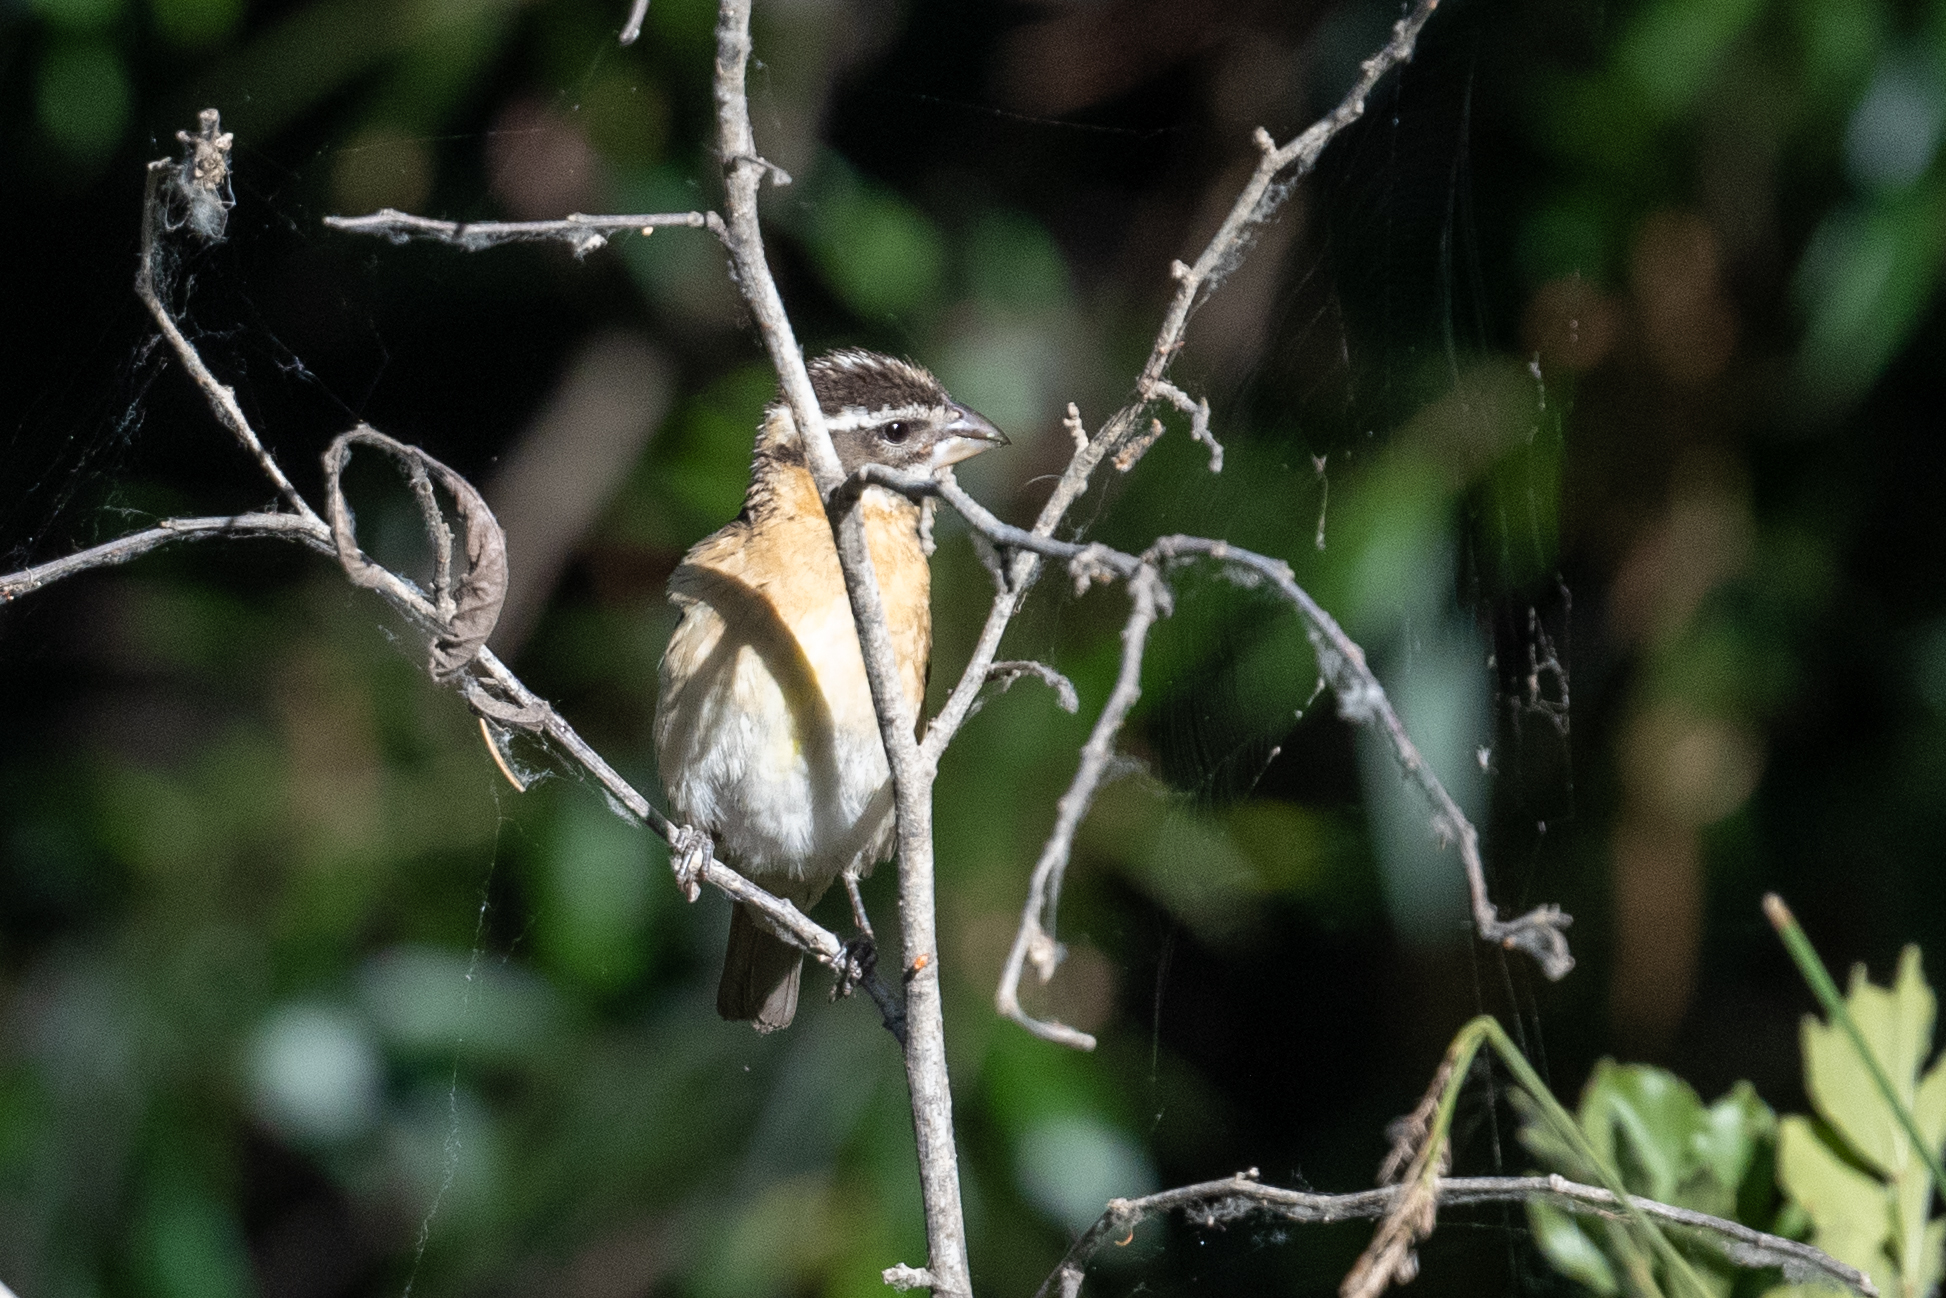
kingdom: Animalia
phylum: Chordata
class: Aves
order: Passeriformes
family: Cardinalidae
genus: Pheucticus
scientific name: Pheucticus melanocephalus
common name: Black-headed grosbeak
